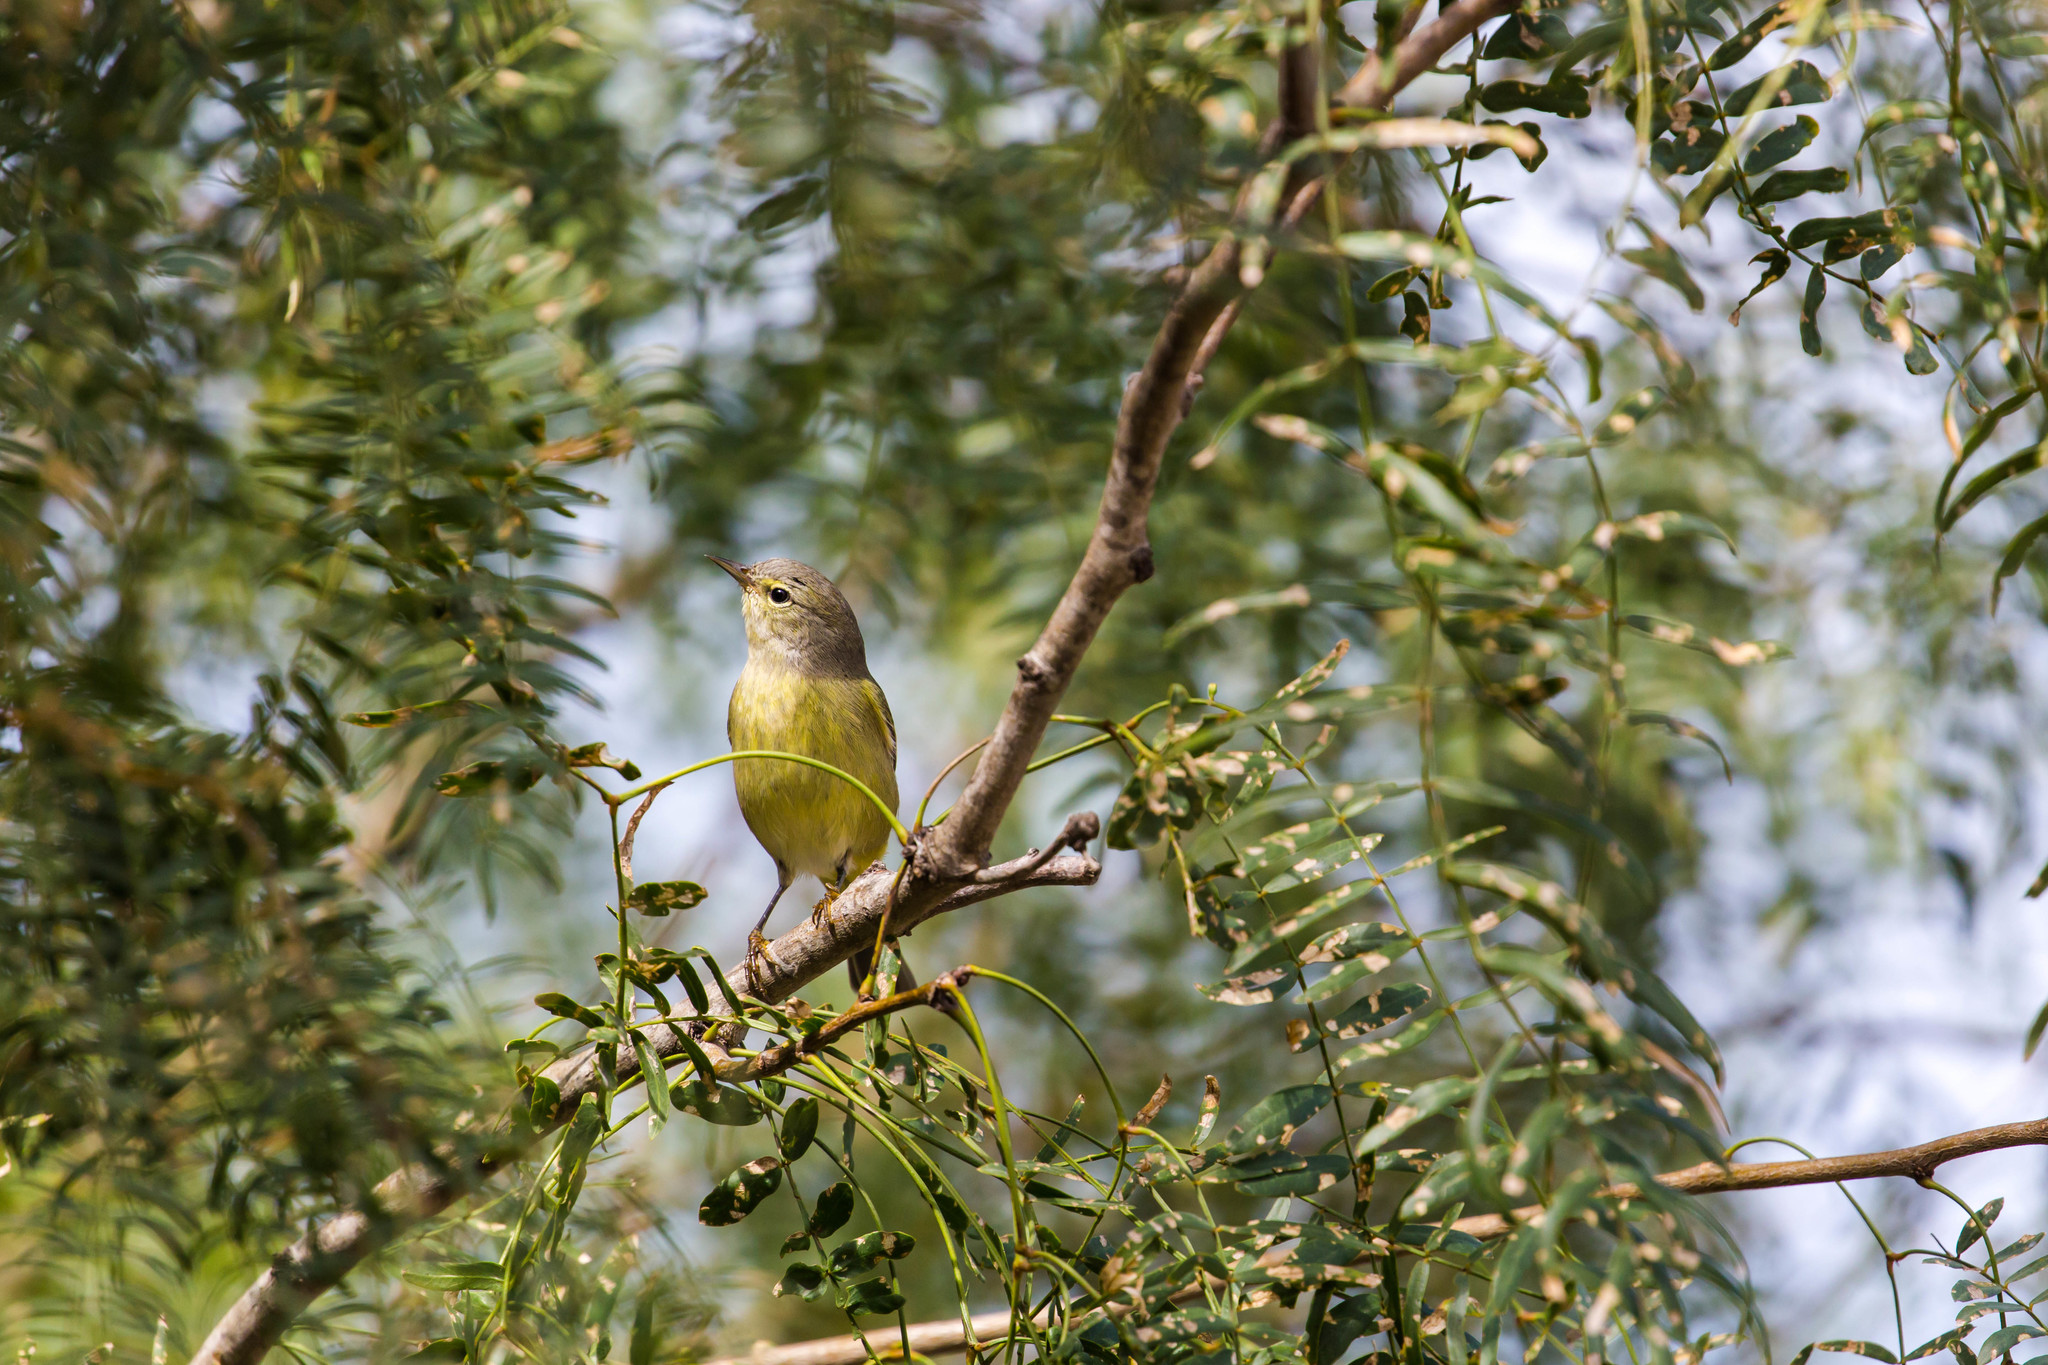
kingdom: Animalia
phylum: Chordata
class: Aves
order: Passeriformes
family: Parulidae
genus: Leiothlypis
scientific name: Leiothlypis celata
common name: Orange-crowned warbler
